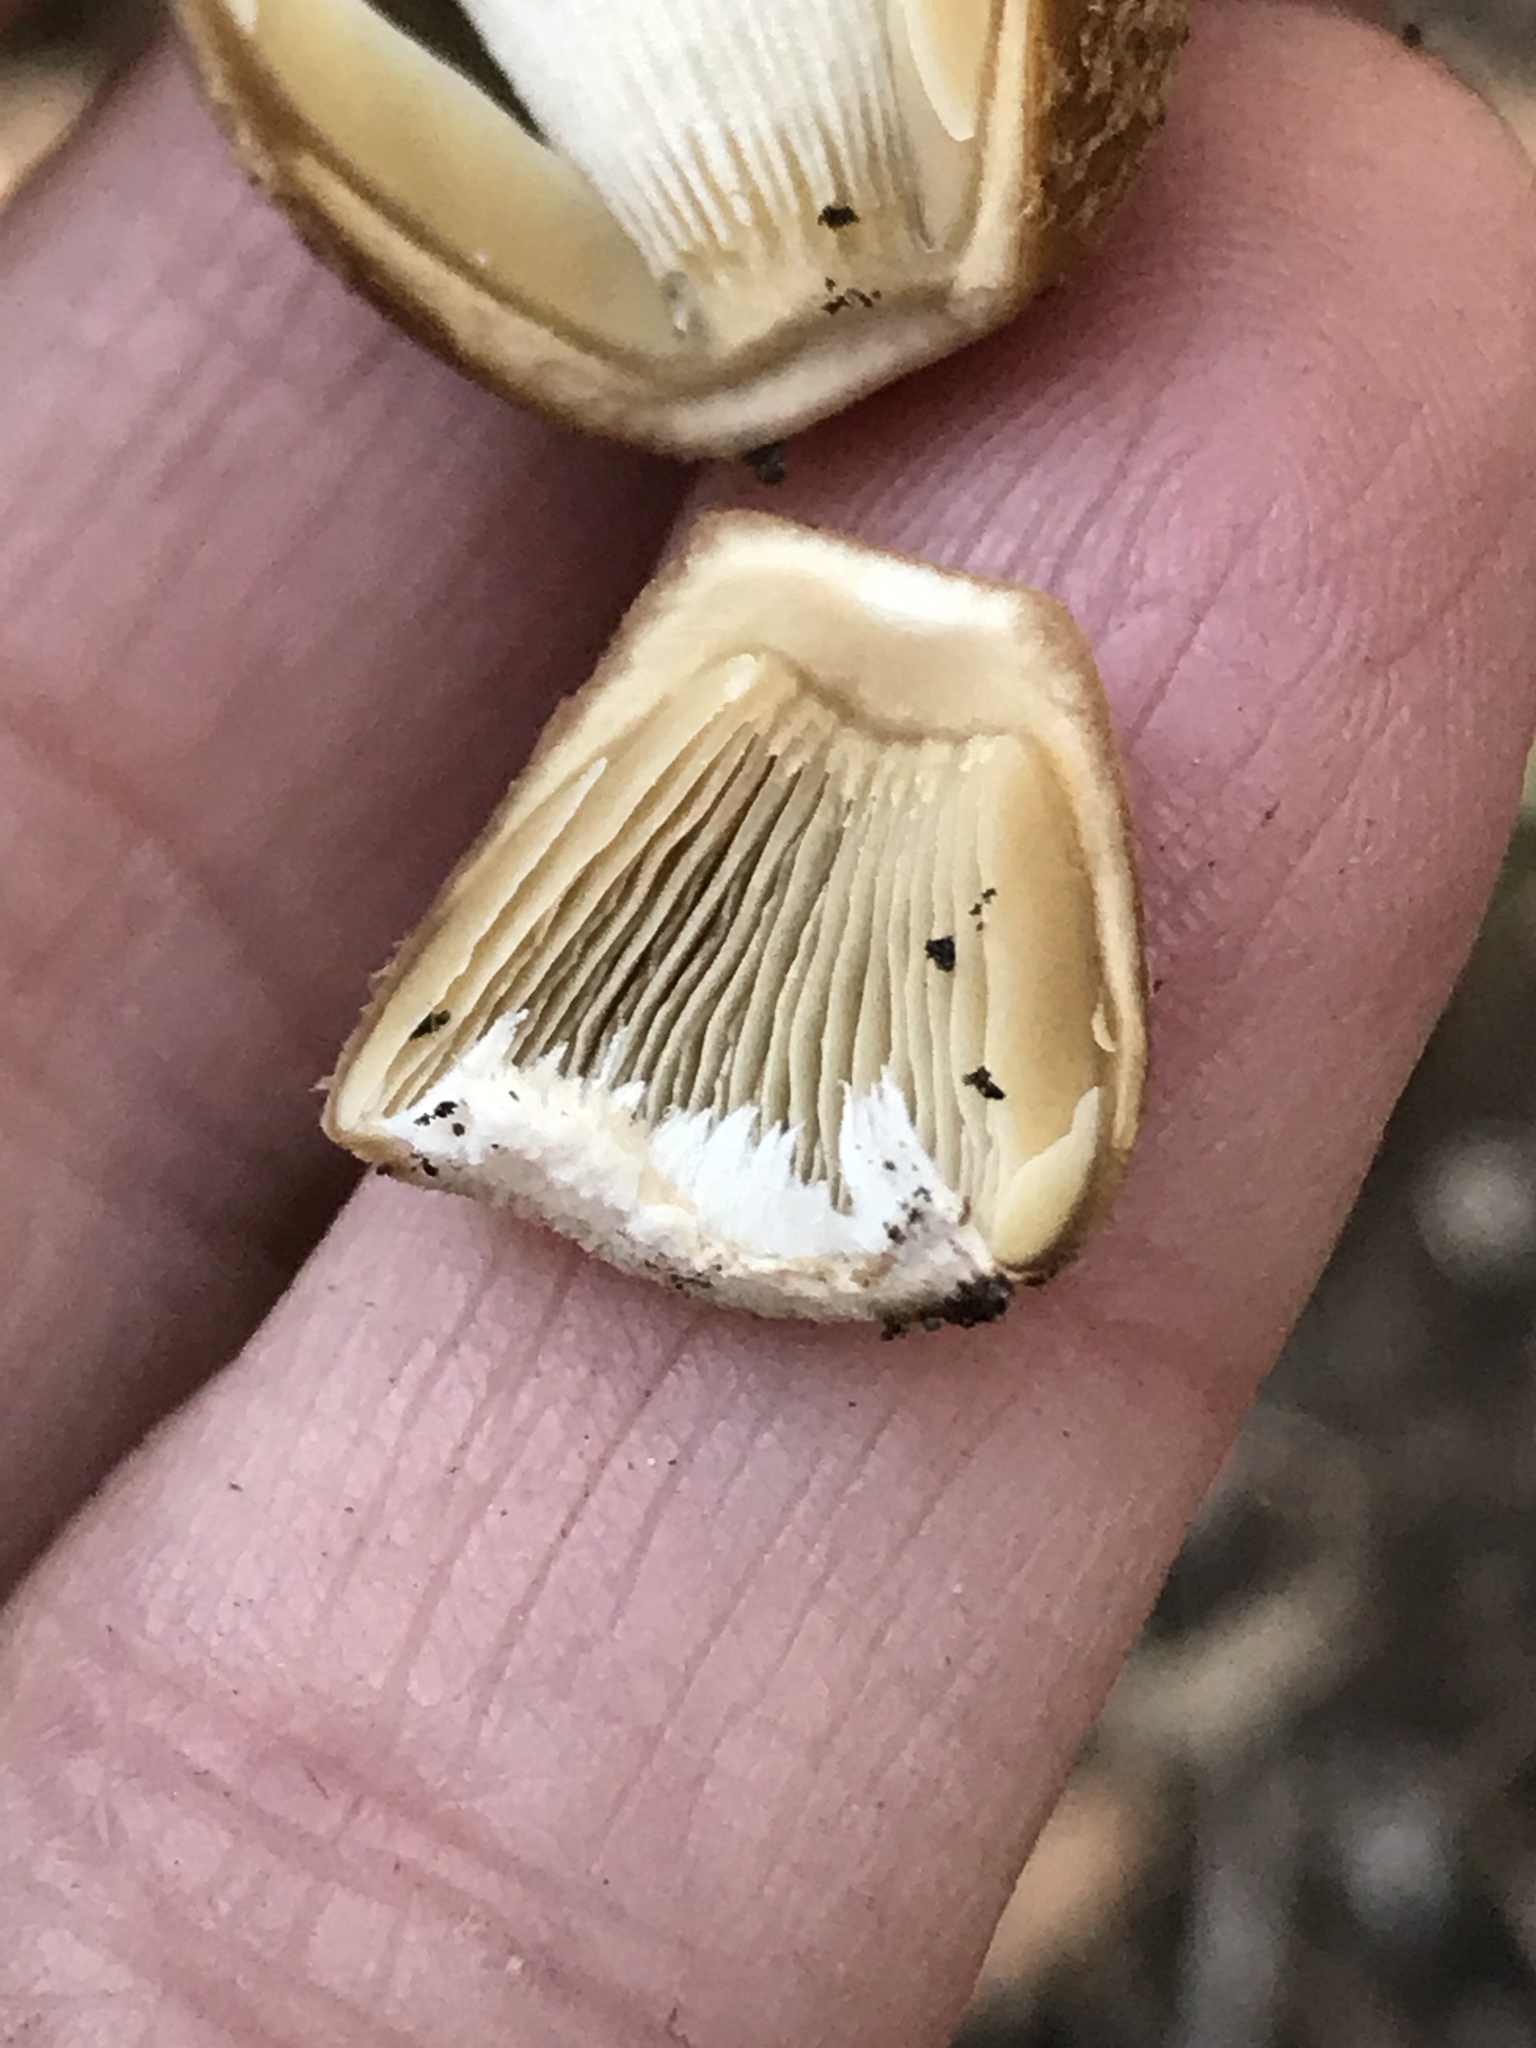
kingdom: Fungi
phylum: Basidiomycota
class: Agaricomycetes
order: Agaricales
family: Psathyrellaceae
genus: Candolleomyces
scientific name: Candolleomyces candolleanus
